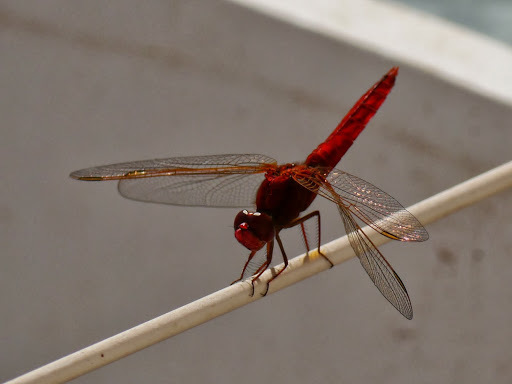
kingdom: Animalia
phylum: Arthropoda
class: Insecta
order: Odonata
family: Libellulidae
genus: Crocothemis
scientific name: Crocothemis erythraea
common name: Scarlet dragonfly
